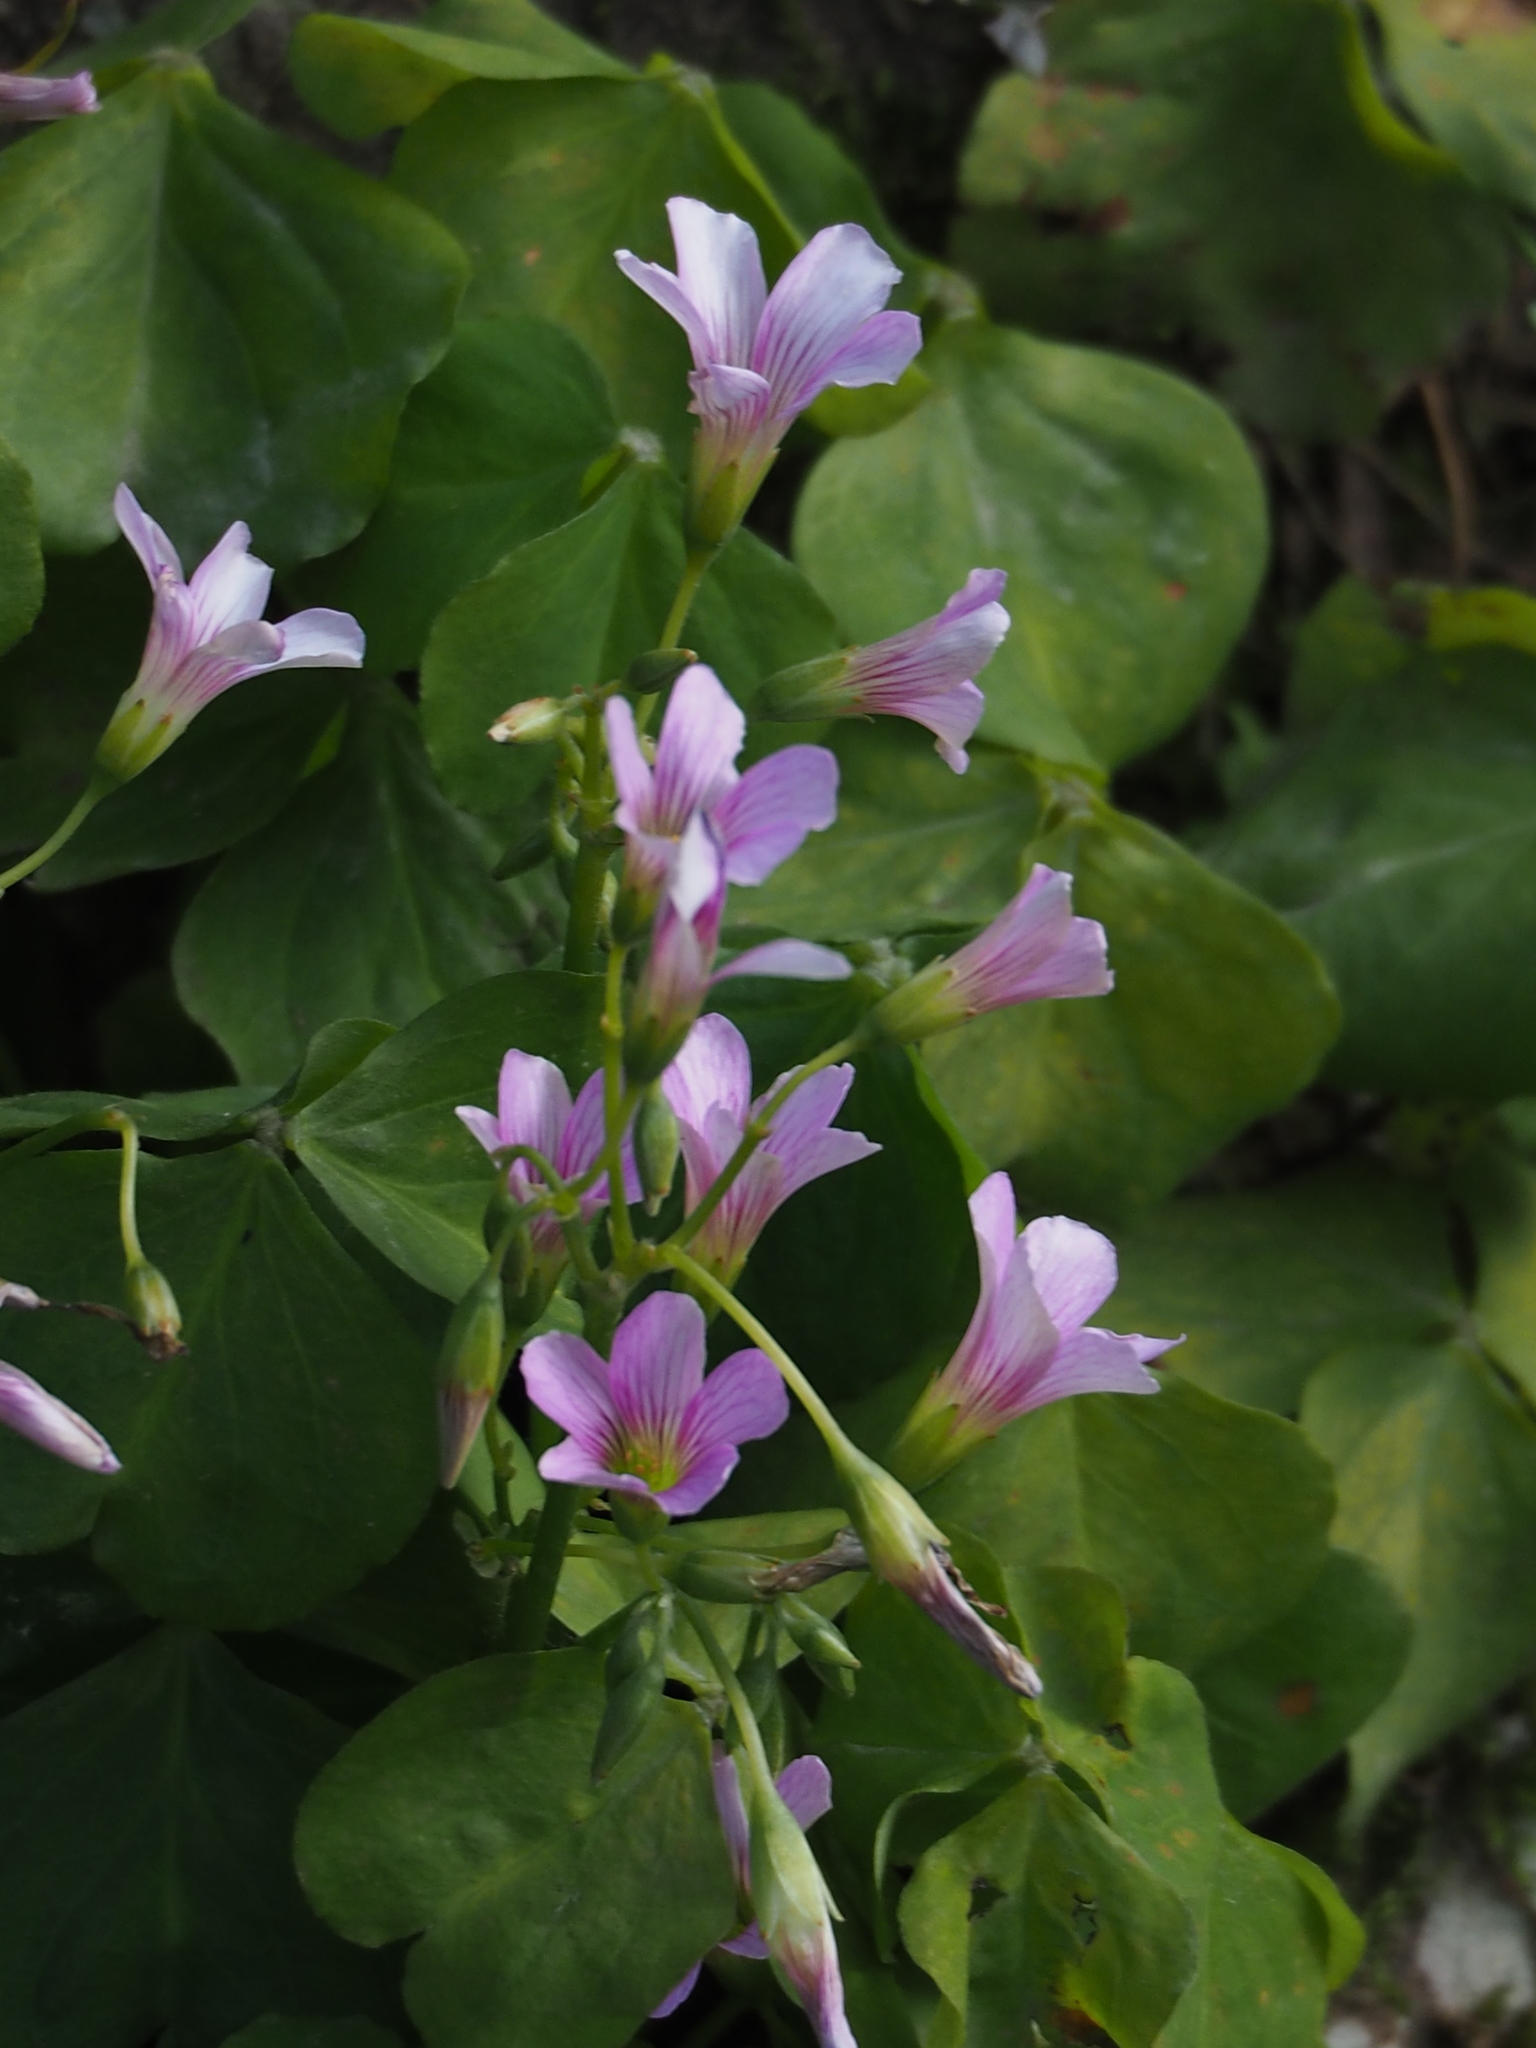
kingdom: Plantae
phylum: Tracheophyta
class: Magnoliopsida
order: Oxalidales
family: Oxalidaceae
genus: Oxalis
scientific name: Oxalis debilis
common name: Large-flowered pink-sorrel
